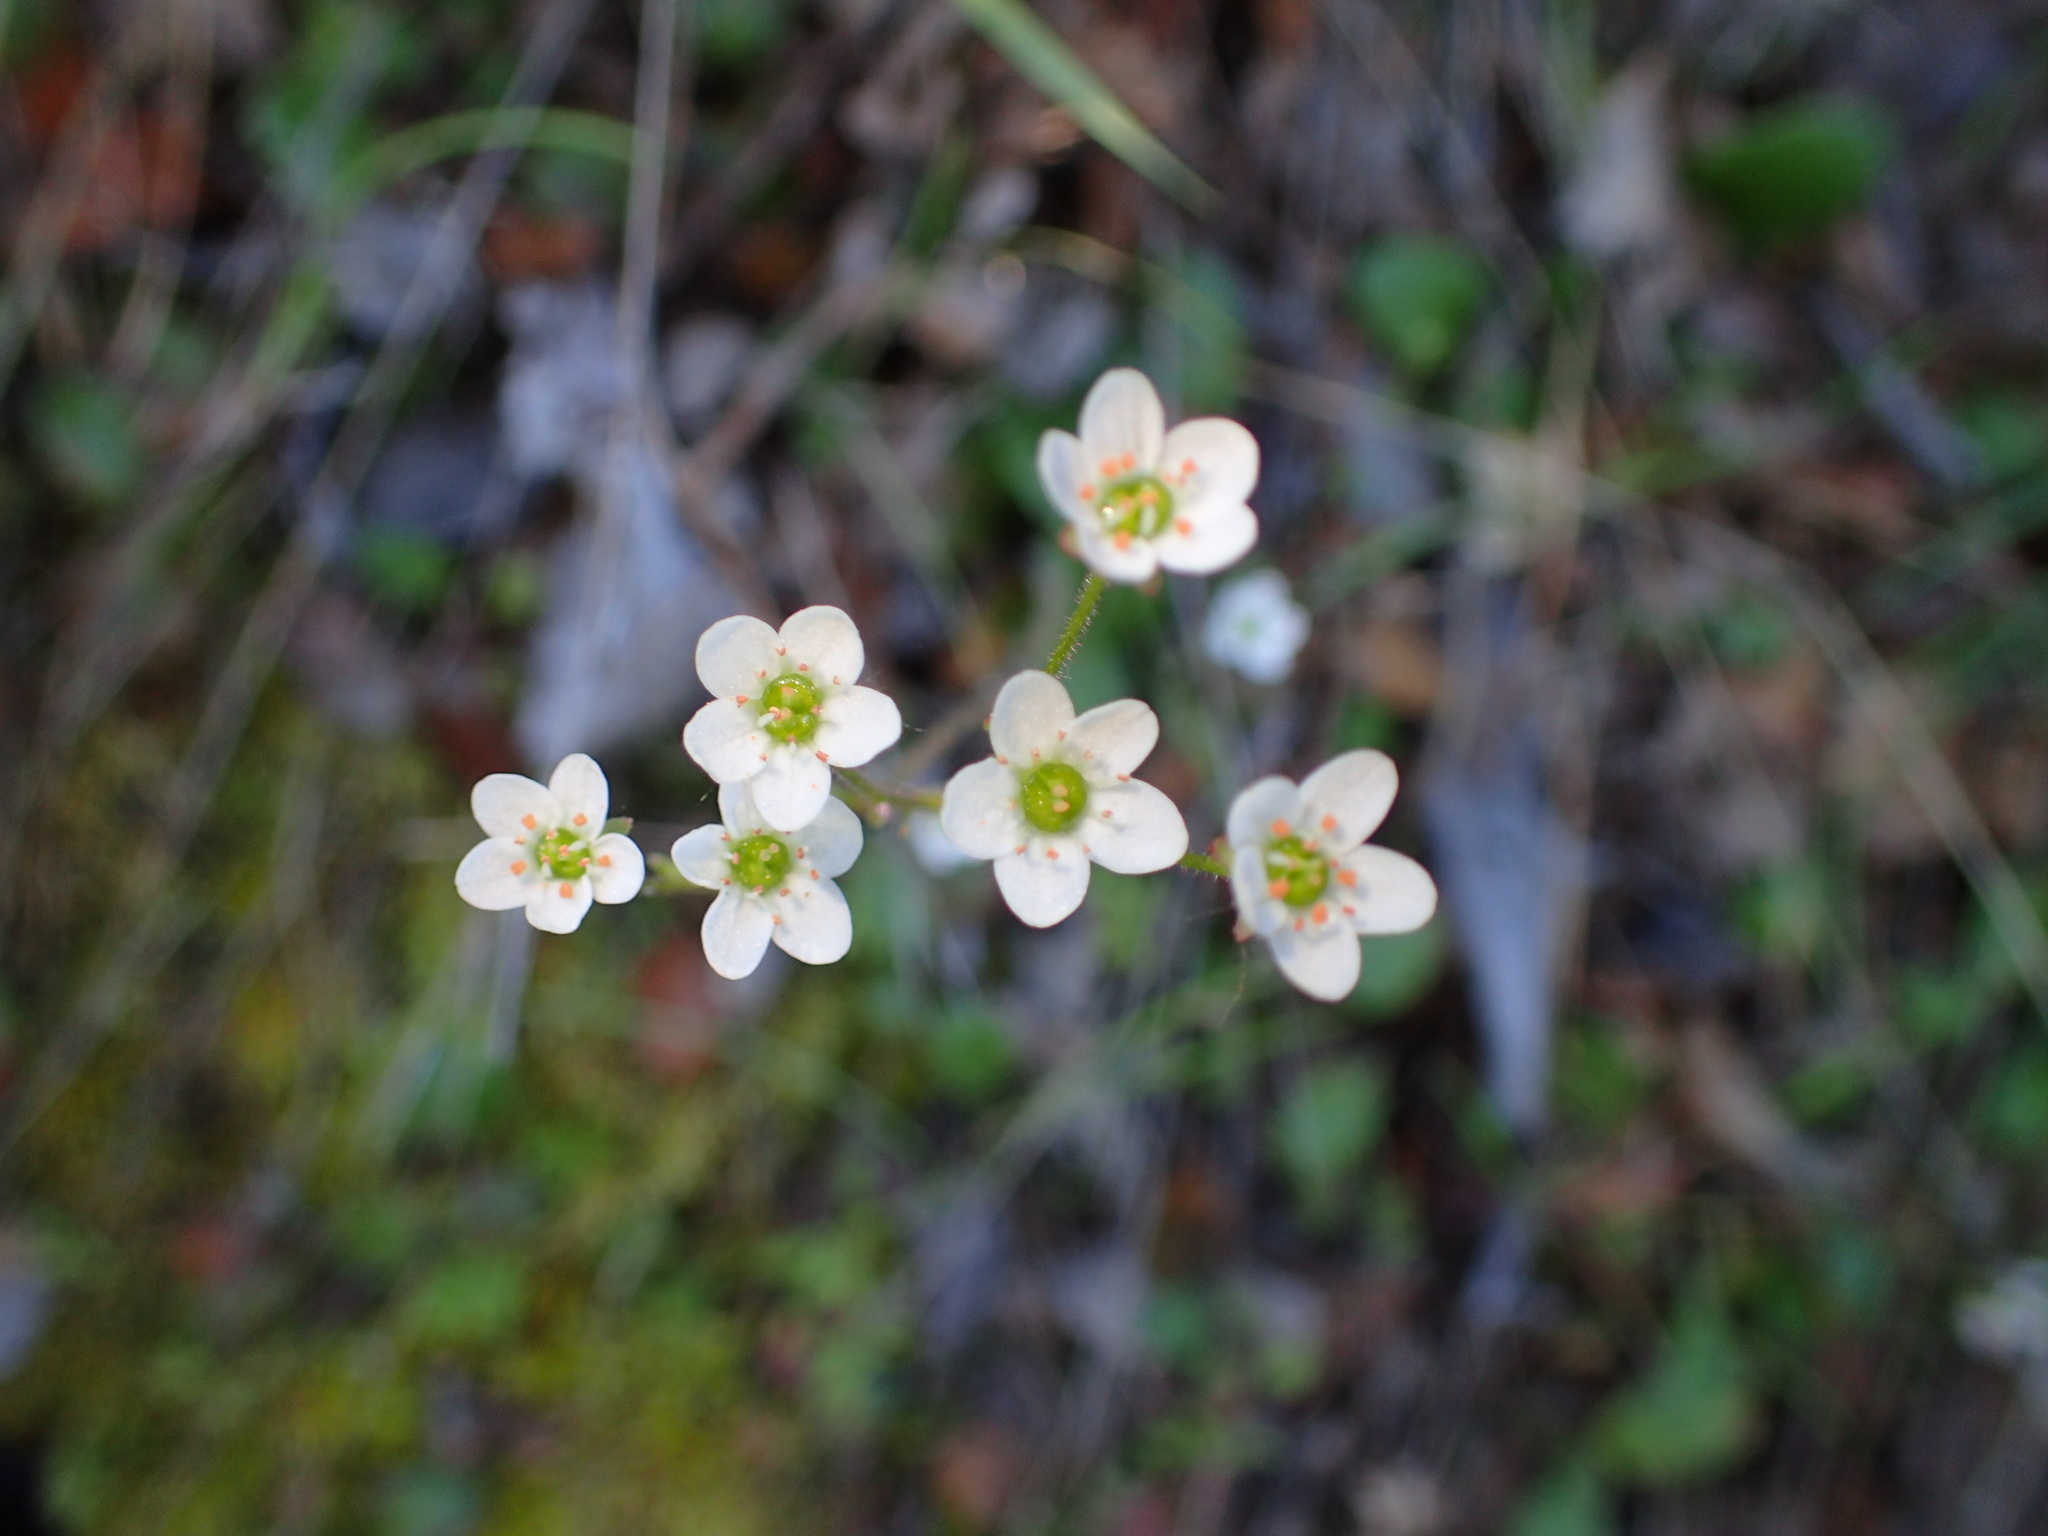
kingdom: Plantae
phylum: Tracheophyta
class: Magnoliopsida
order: Saxifragales
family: Saxifragaceae
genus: Micranthes
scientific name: Micranthes californica
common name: California saxifrage
